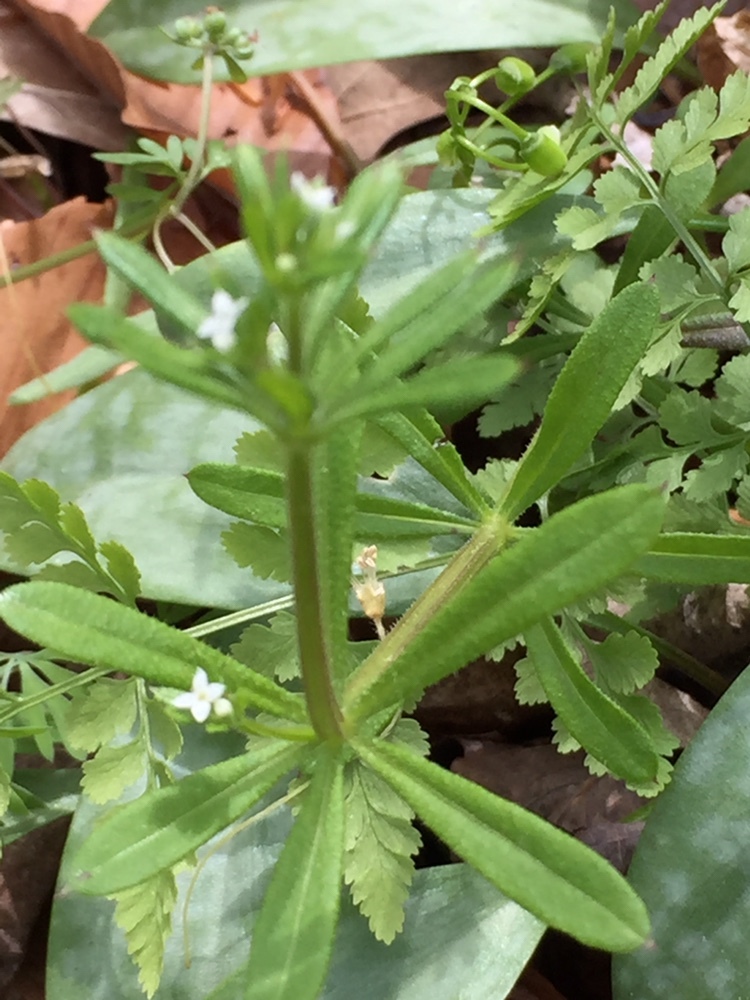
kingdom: Plantae
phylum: Tracheophyta
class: Magnoliopsida
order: Gentianales
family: Rubiaceae
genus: Galium
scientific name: Galium aparine
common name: Cleavers
